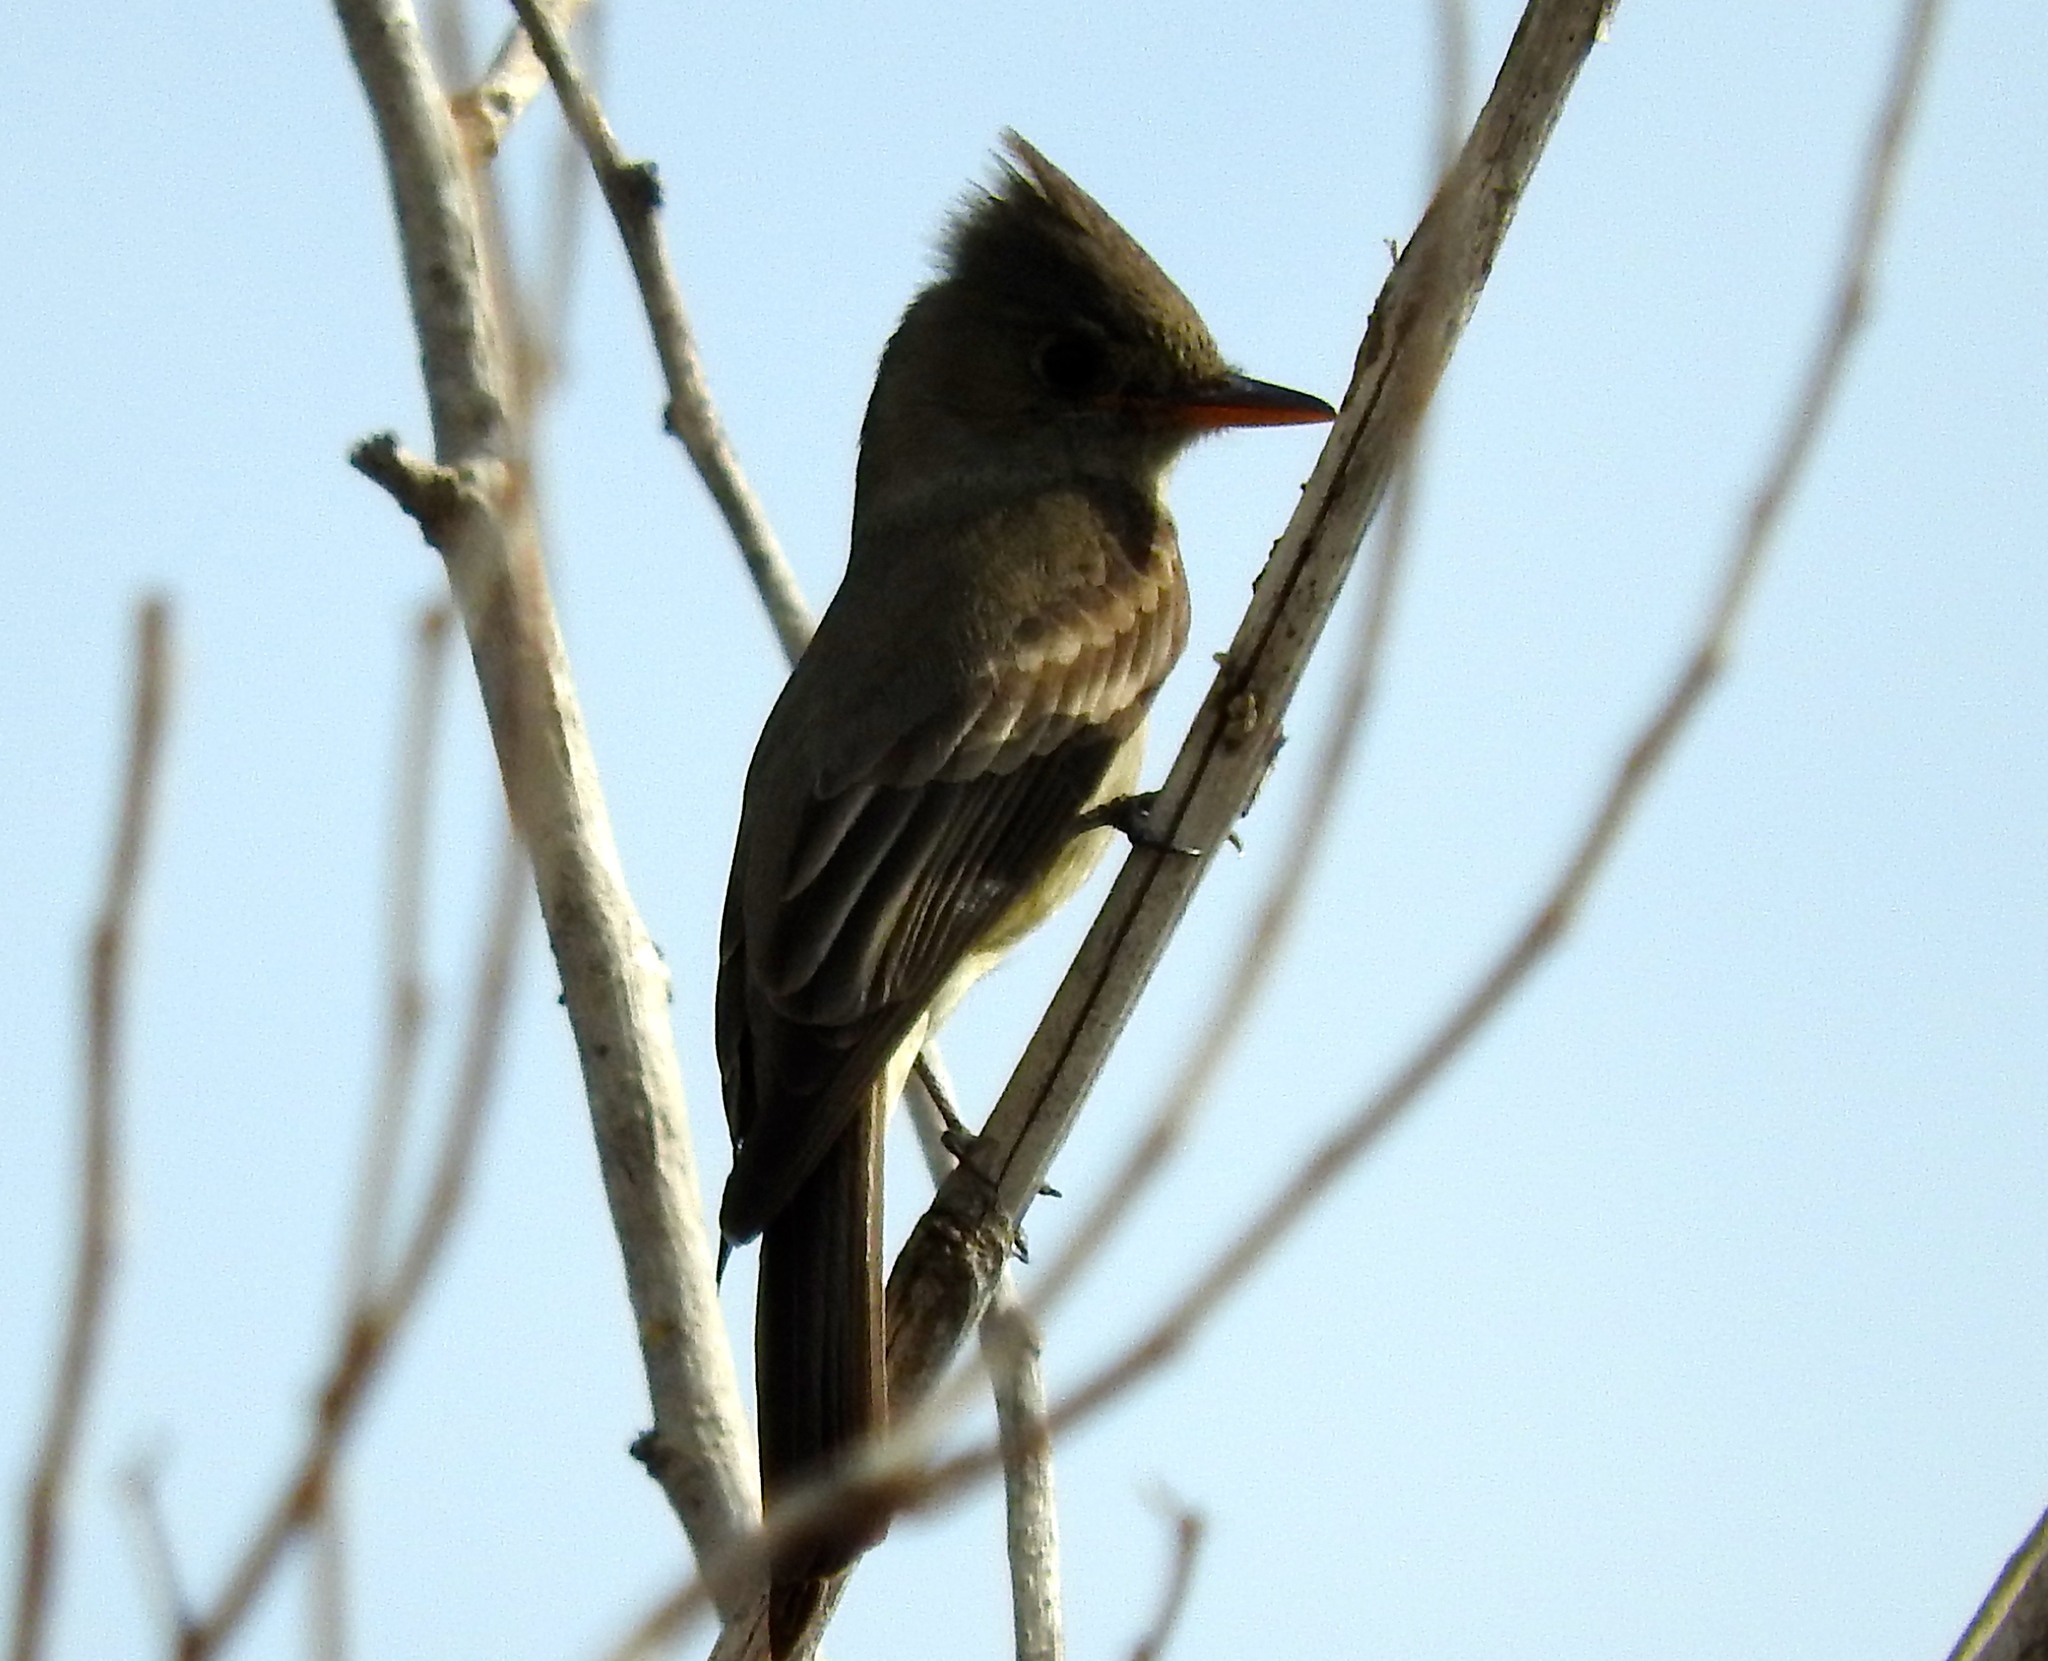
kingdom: Animalia
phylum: Chordata
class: Aves
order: Passeriformes
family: Tyrannidae
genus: Contopus
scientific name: Contopus pertinax
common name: Greater pewee
